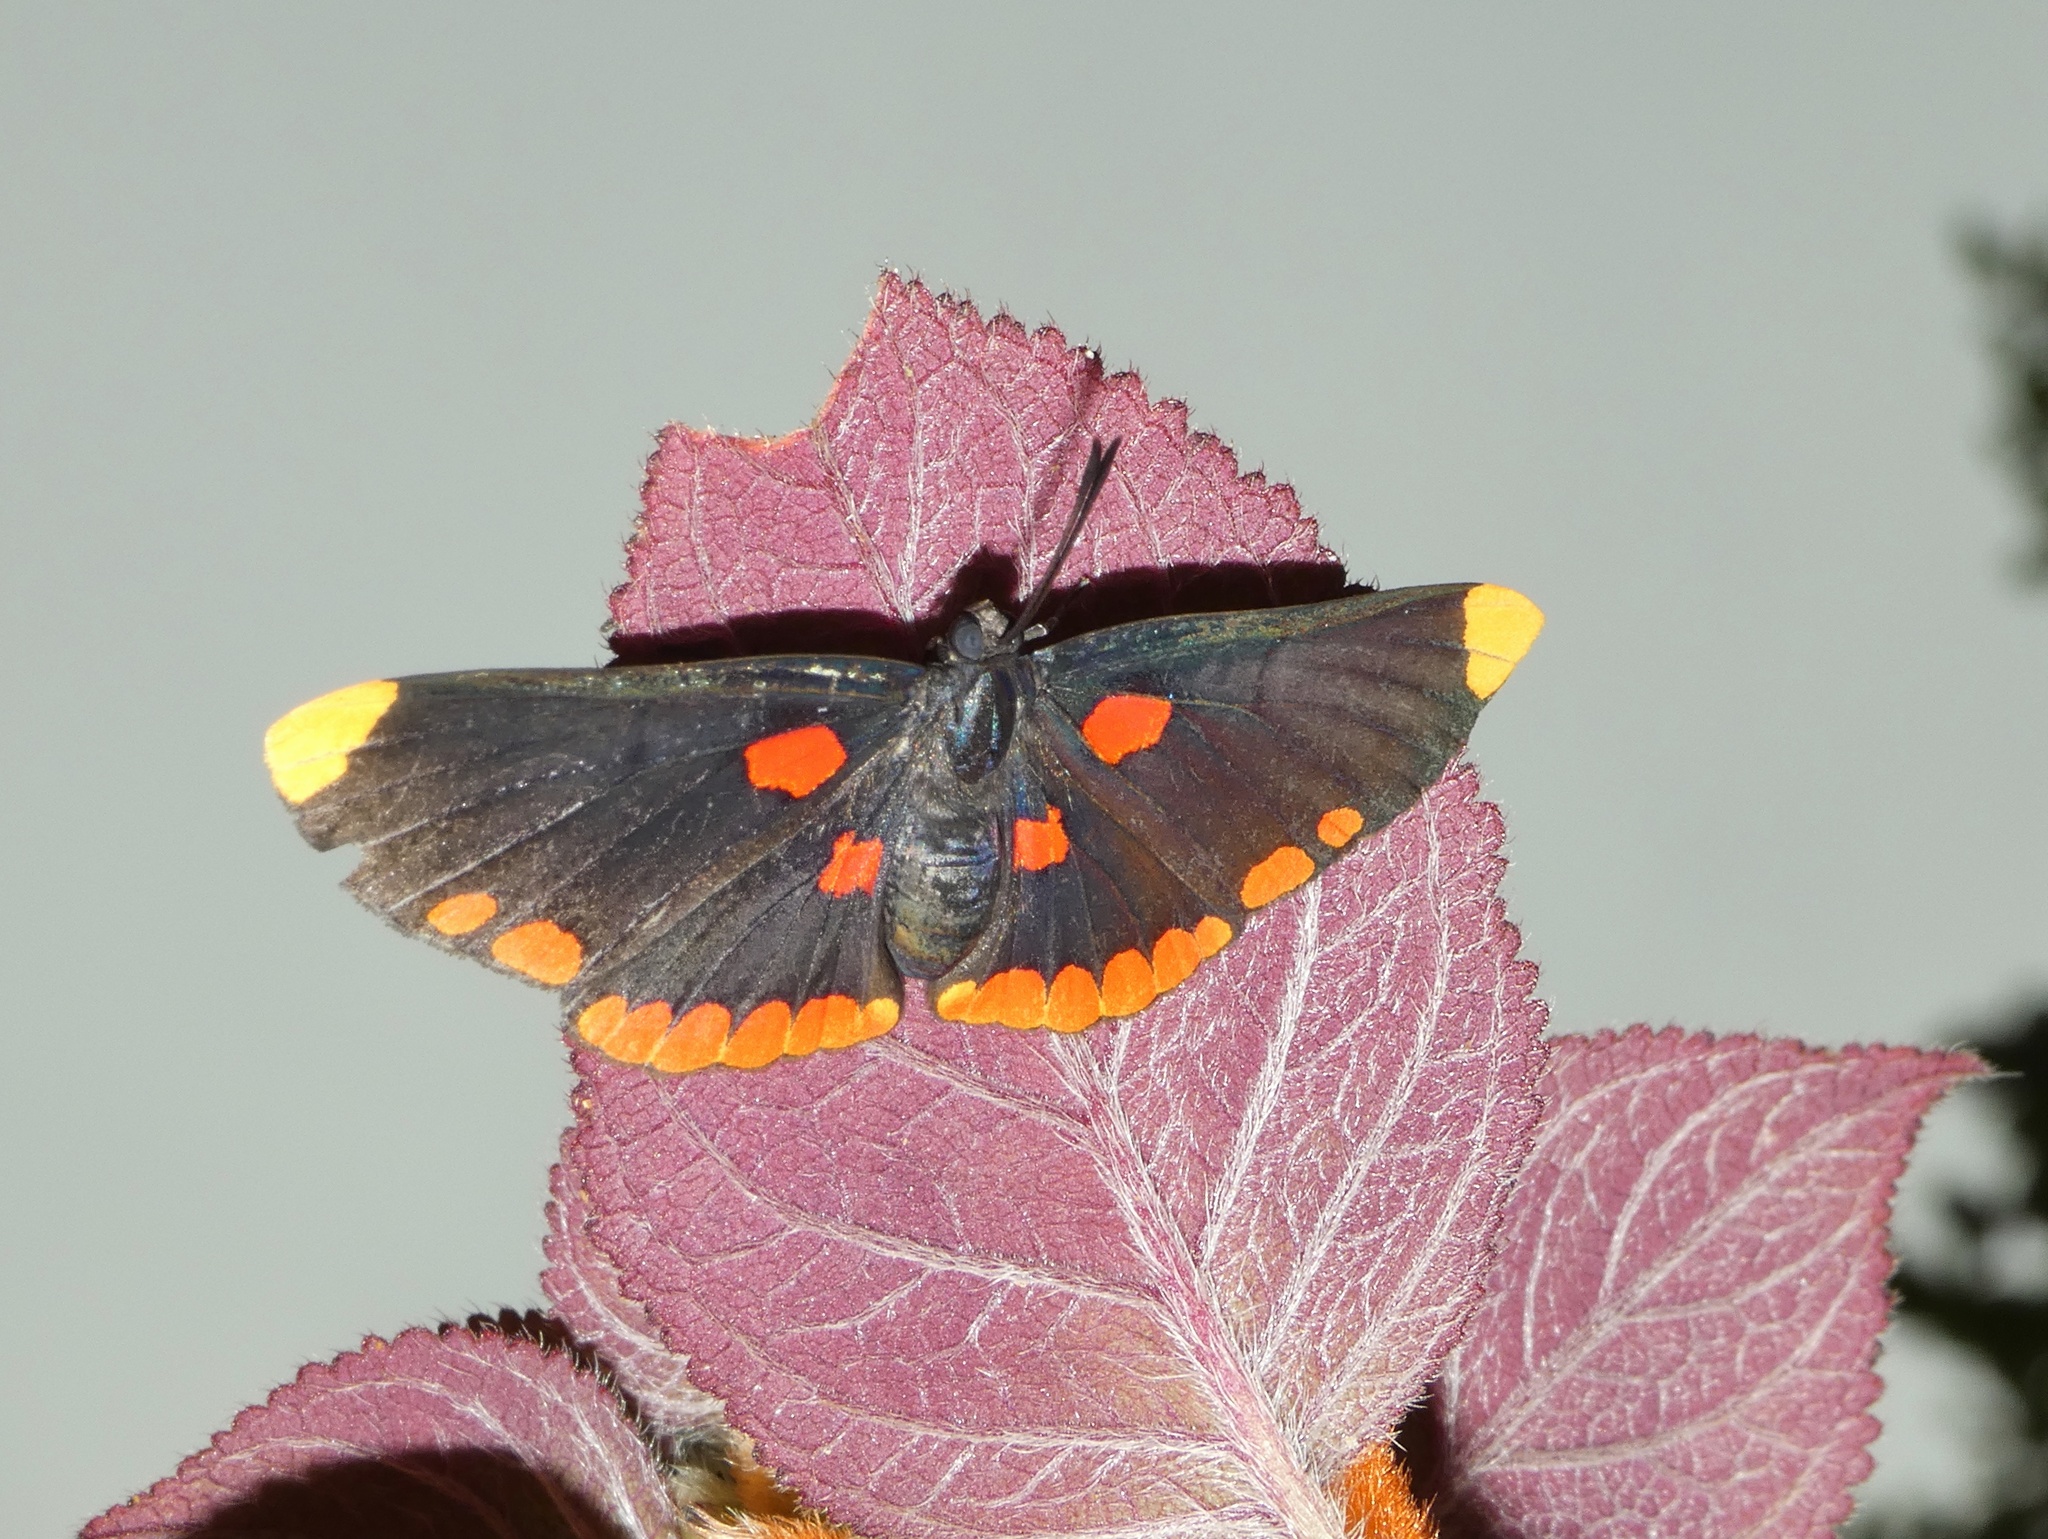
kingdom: Animalia
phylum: Arthropoda
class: Insecta
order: Lepidoptera
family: Lycaenidae
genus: Melanis
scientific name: Melanis pixe
